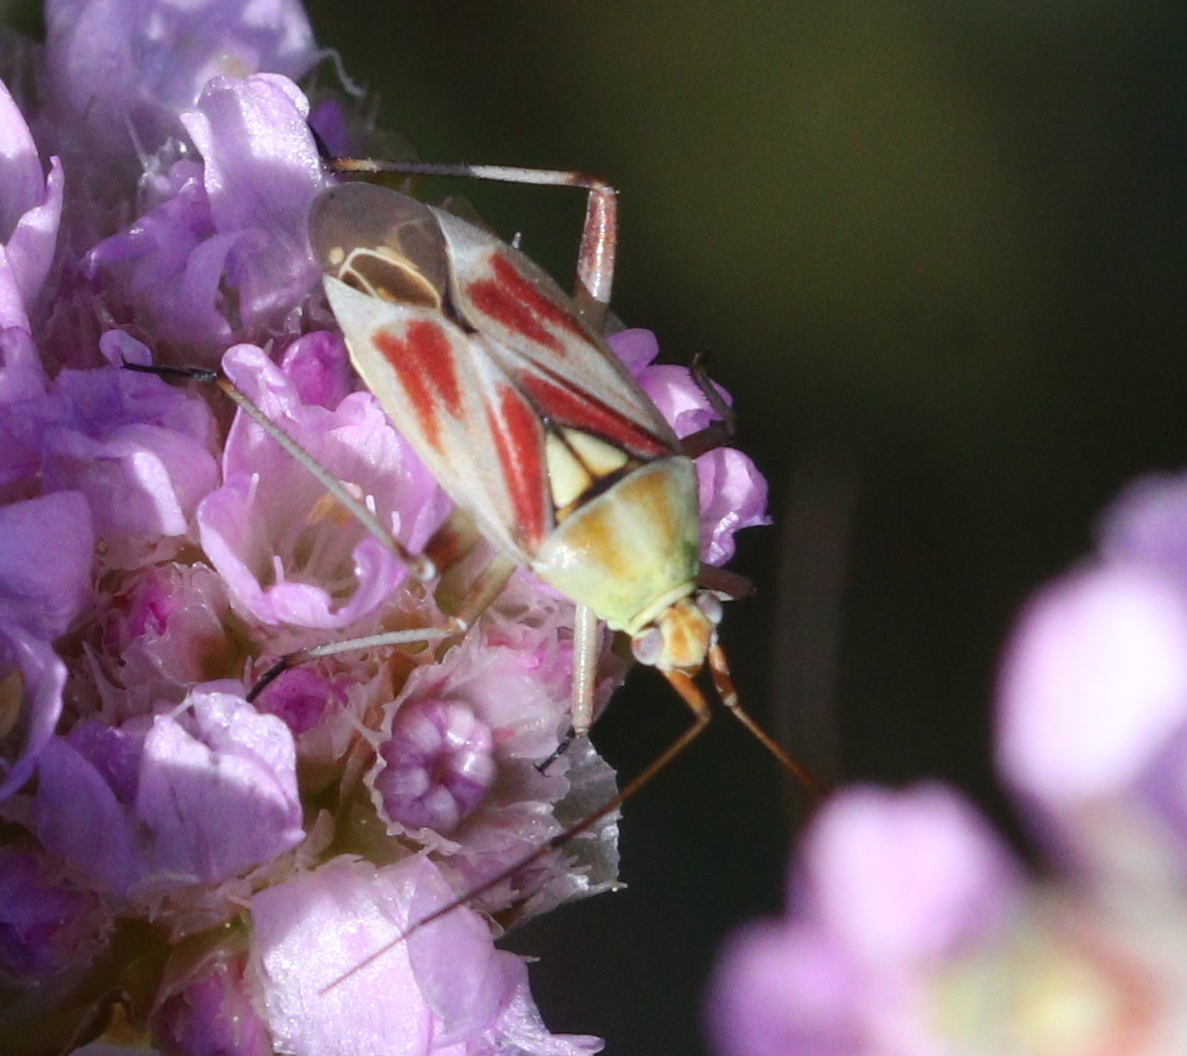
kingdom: Animalia
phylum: Arthropoda
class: Insecta
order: Hemiptera
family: Miridae
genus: Calocoris
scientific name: Calocoris roseomaculatus
